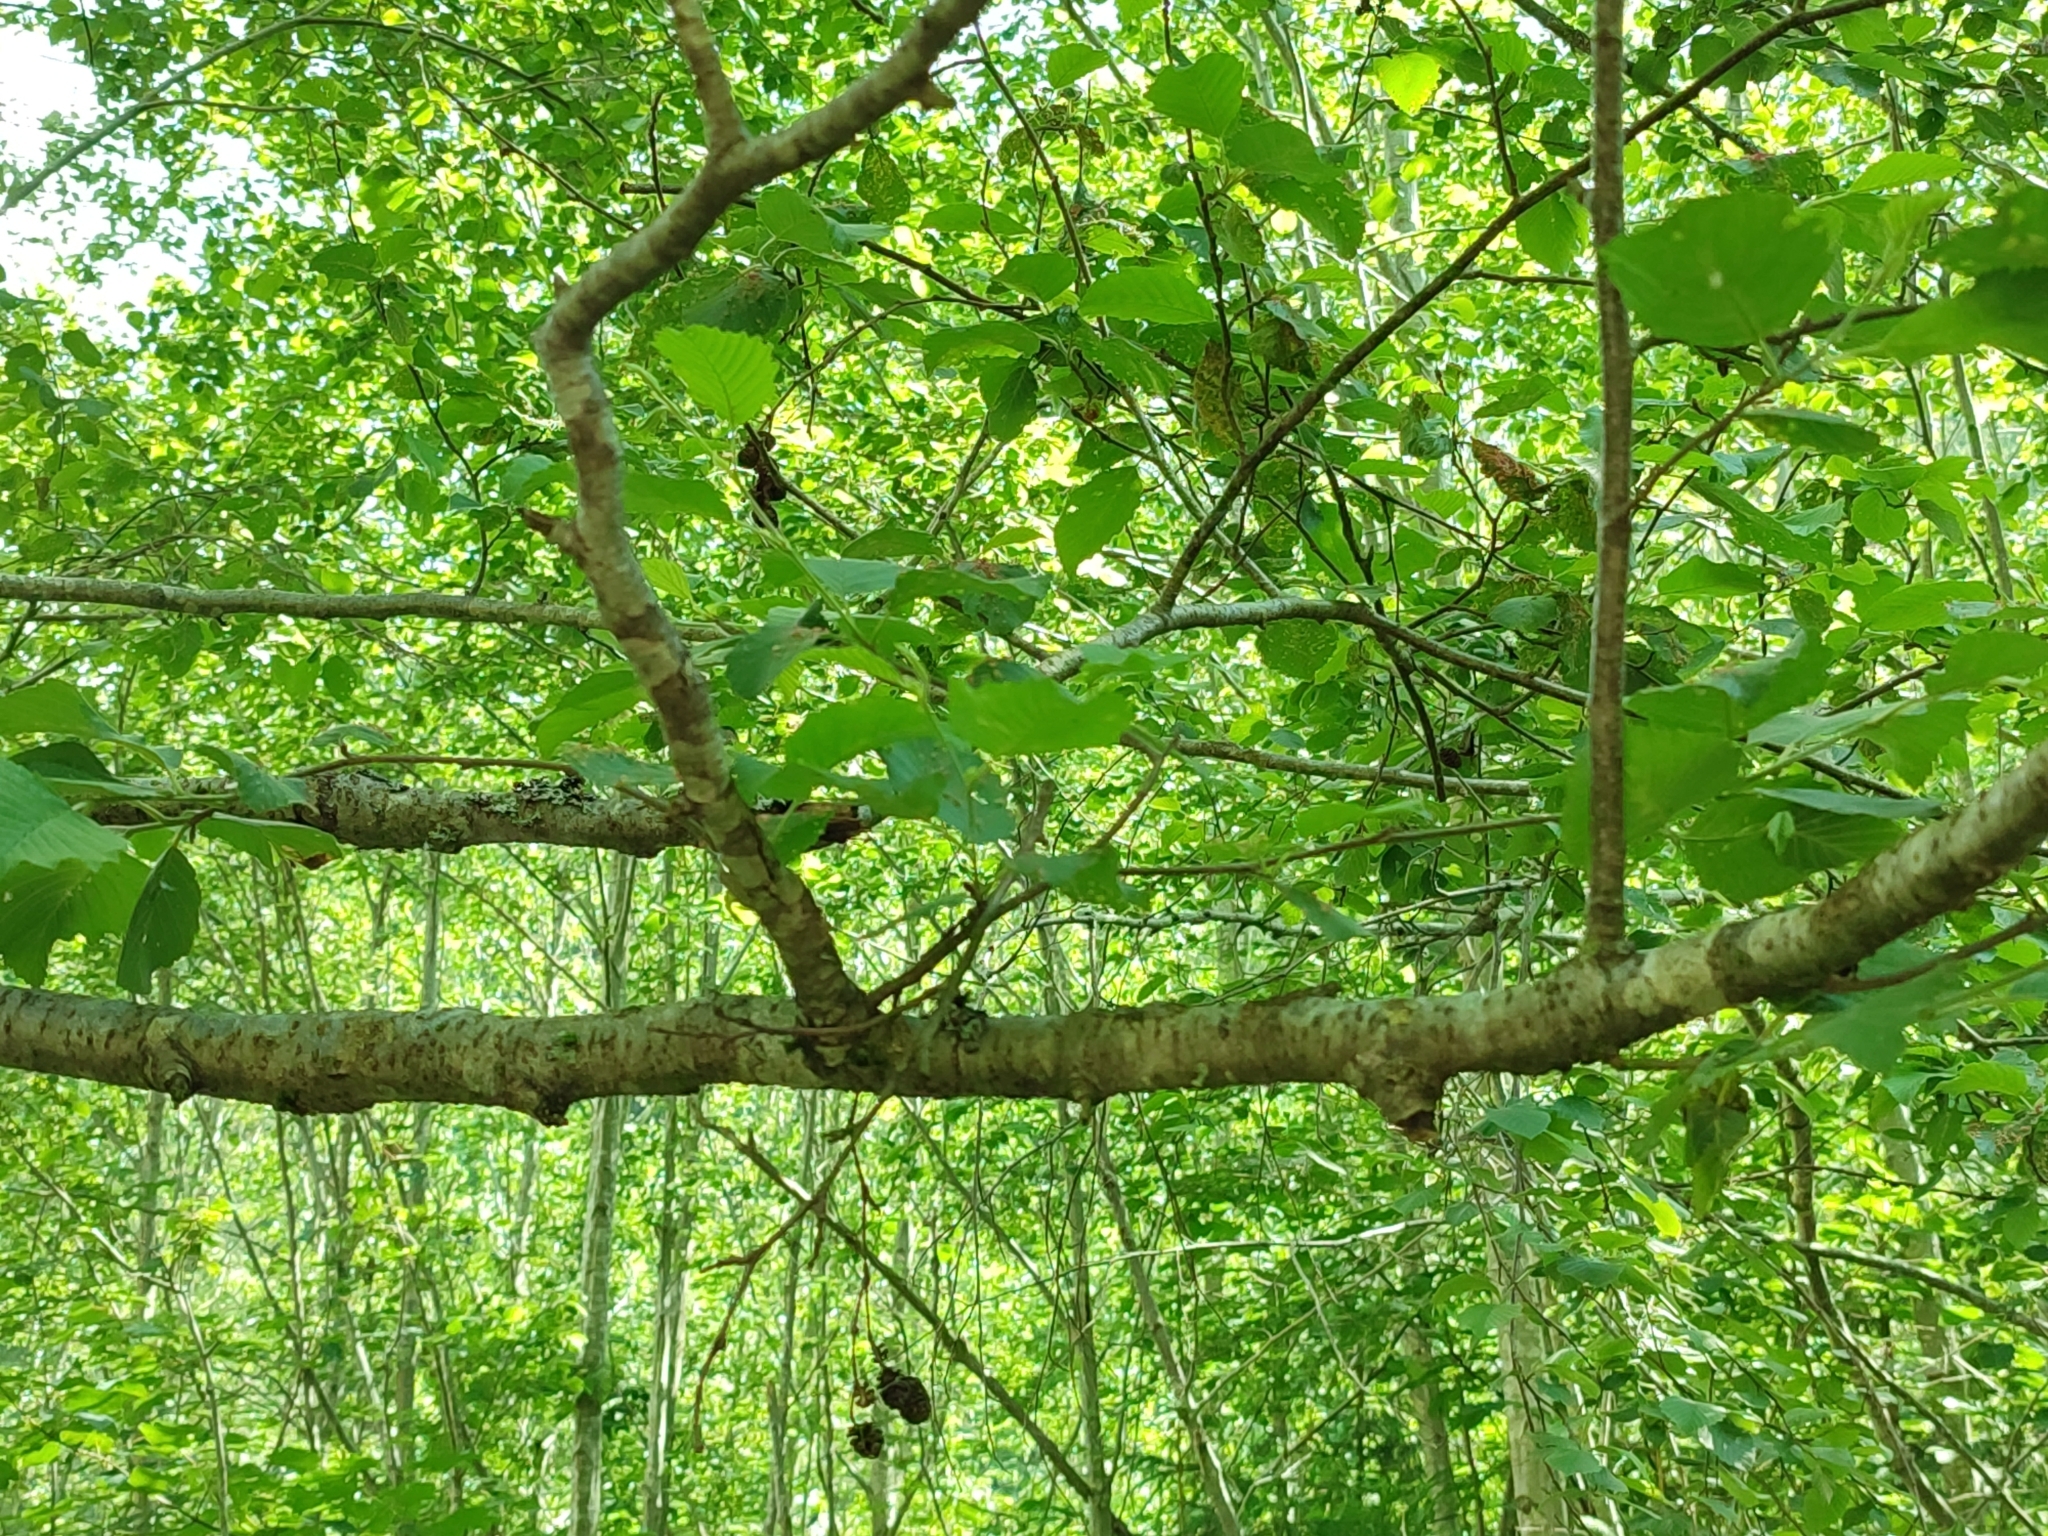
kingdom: Plantae
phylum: Tracheophyta
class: Magnoliopsida
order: Fagales
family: Betulaceae
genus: Alnus
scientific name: Alnus incana
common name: Grey alder
